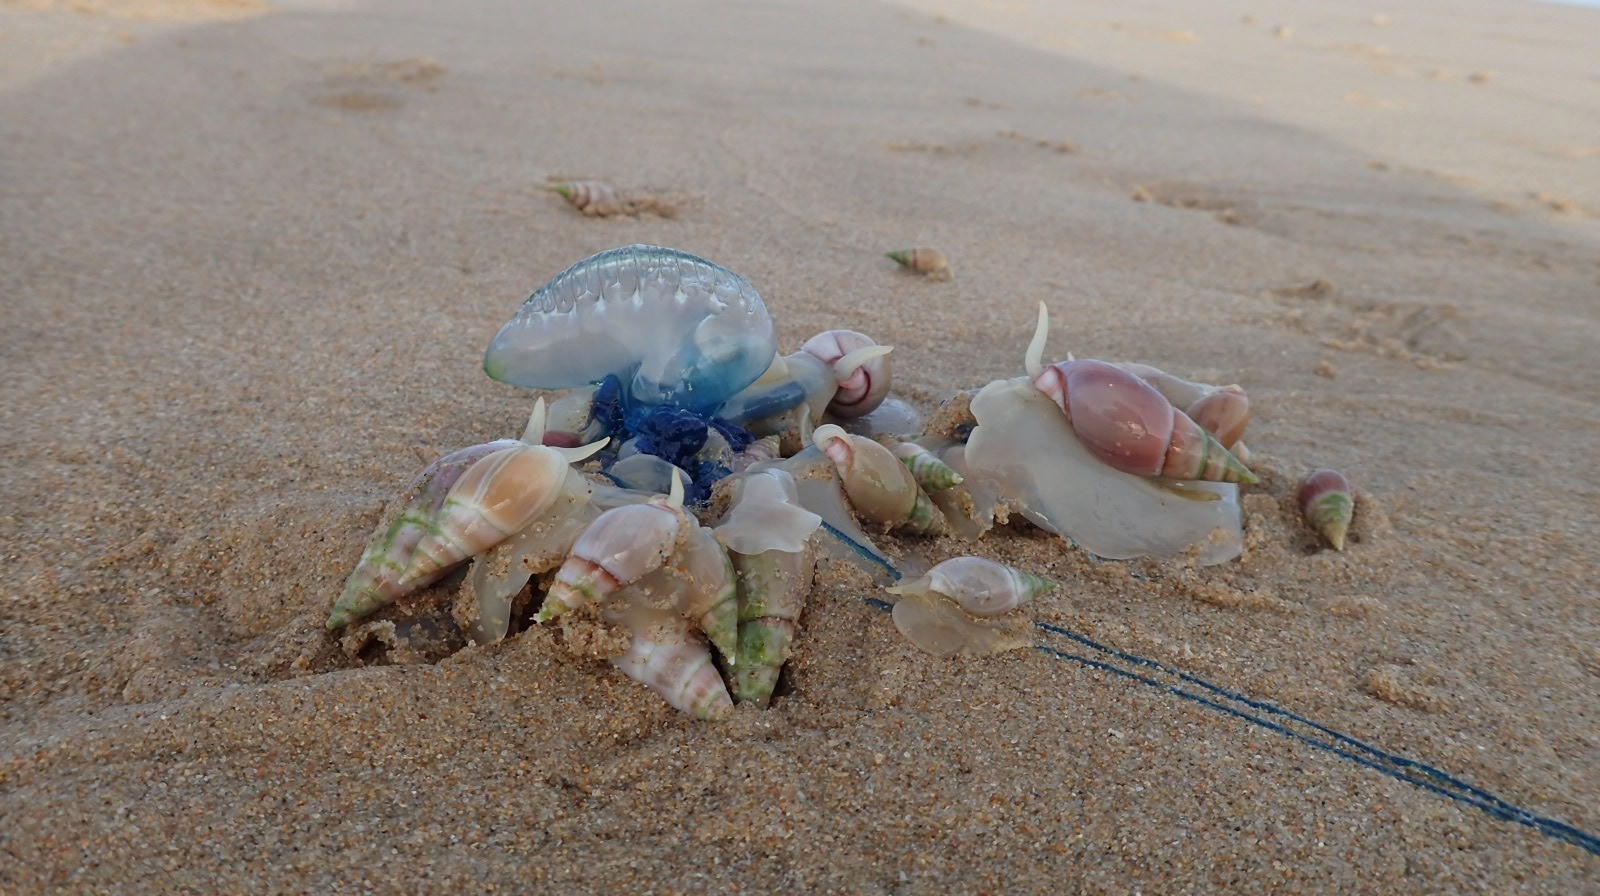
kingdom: Animalia
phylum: Mollusca
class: Gastropoda
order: Neogastropoda
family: Nassariidae
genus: Bullia
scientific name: Bullia rhodostoma
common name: Smooth plough shell
